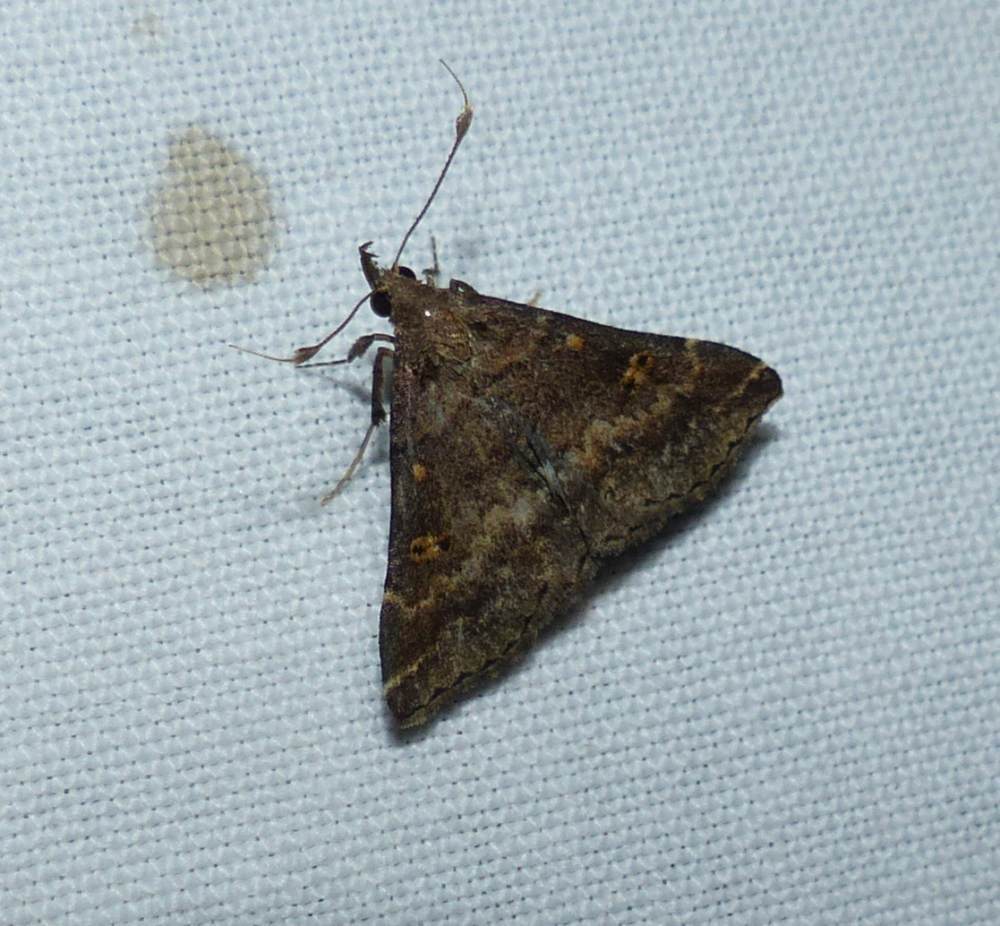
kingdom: Animalia
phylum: Arthropoda
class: Insecta
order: Lepidoptera
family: Erebidae
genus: Renia
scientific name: Renia factiosalis
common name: Sociable renia moth
